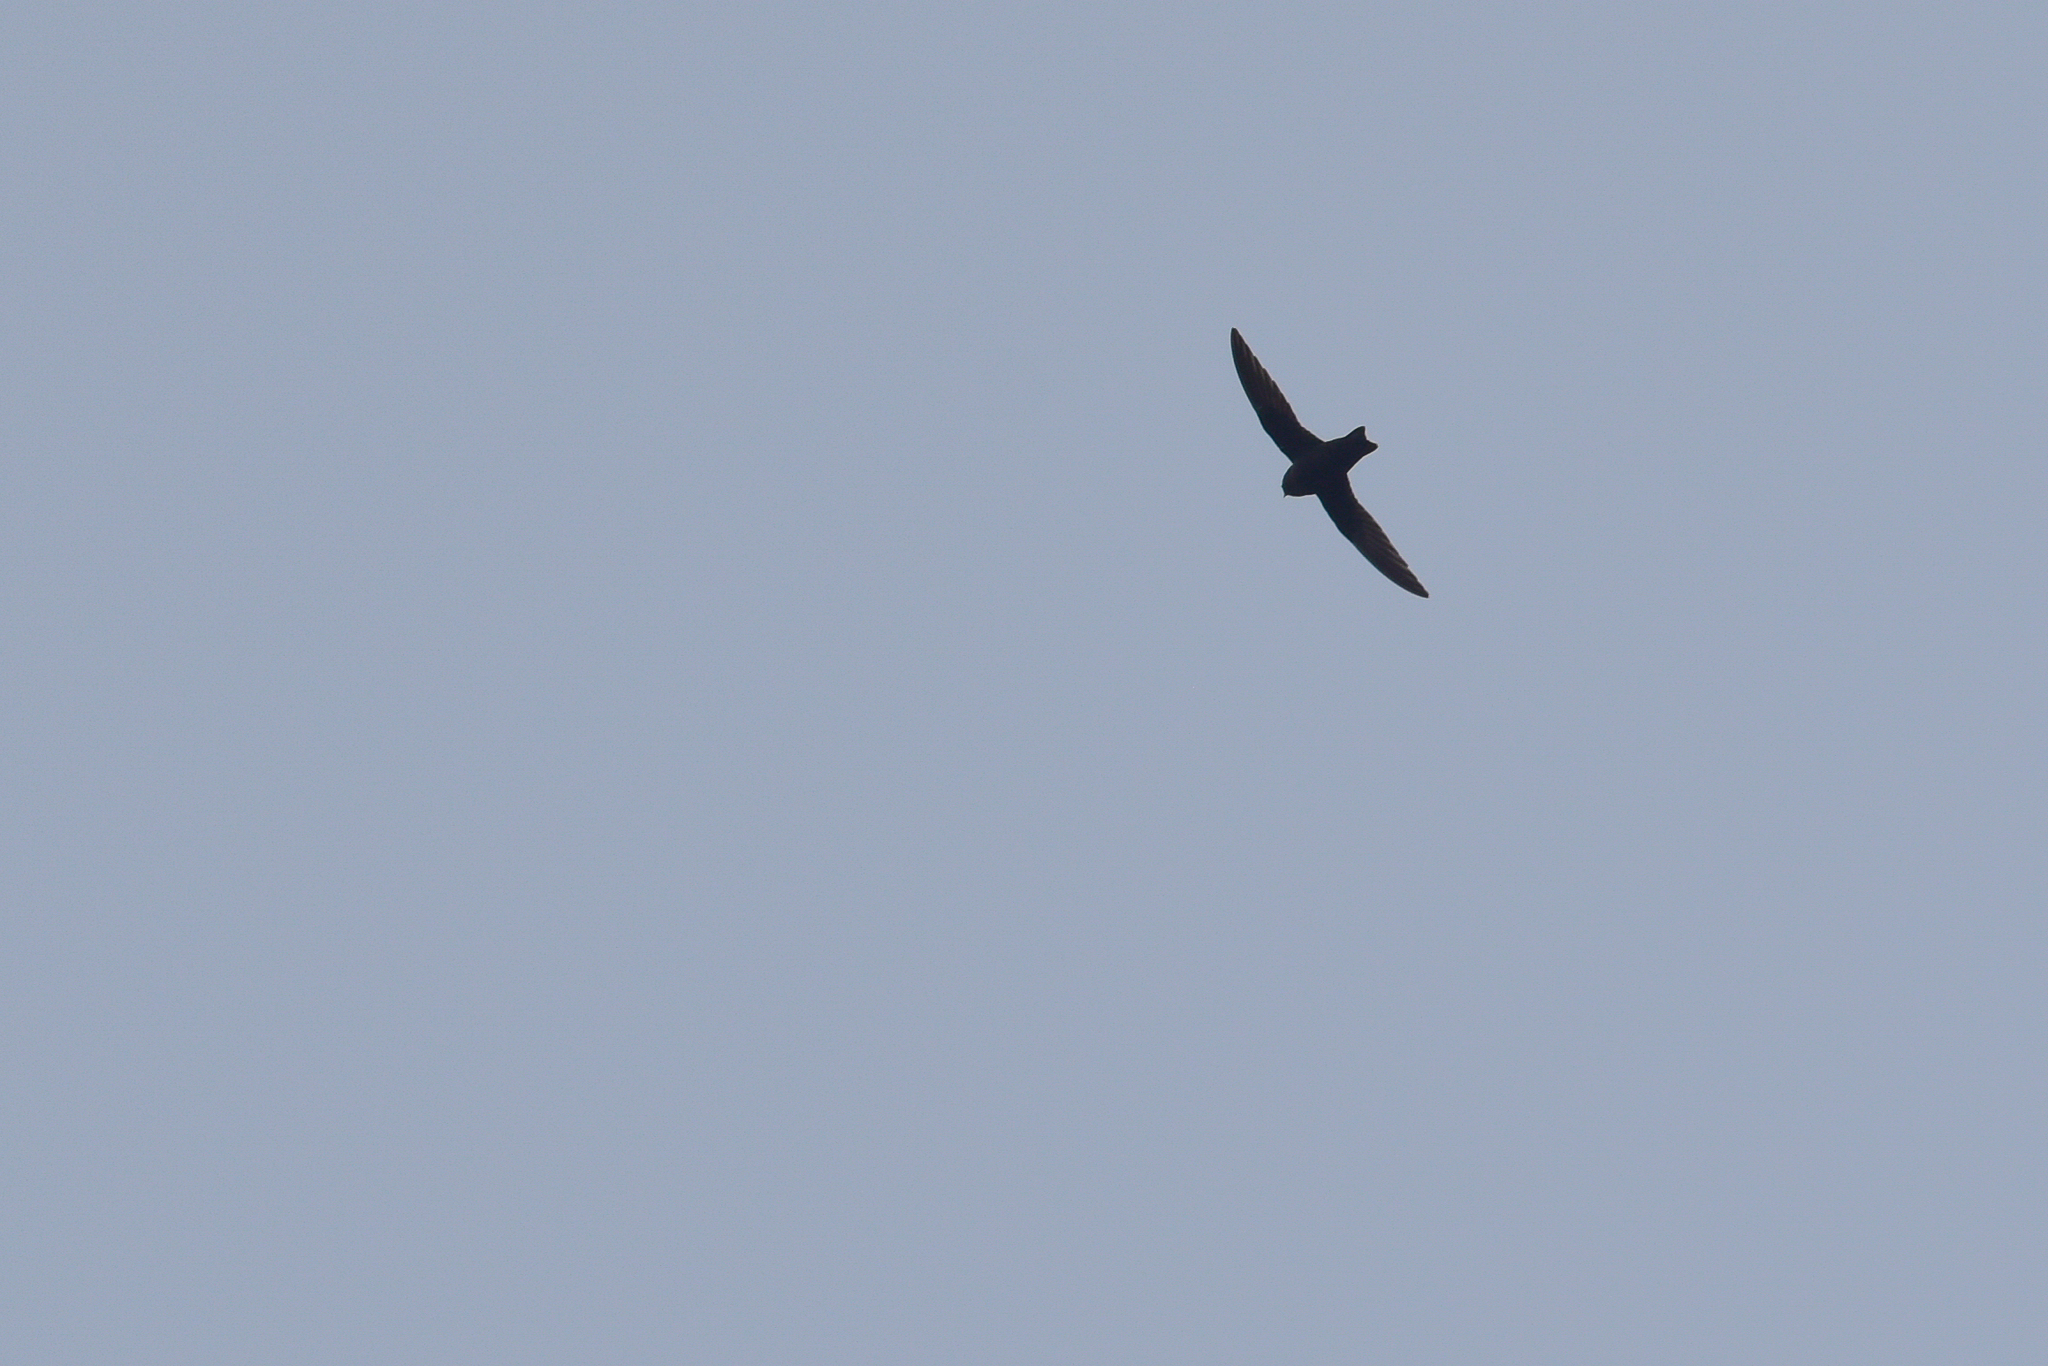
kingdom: Animalia
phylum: Chordata
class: Aves
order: Apodiformes
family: Apodidae
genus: Cypseloides
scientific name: Cypseloides niger
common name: Black swift
